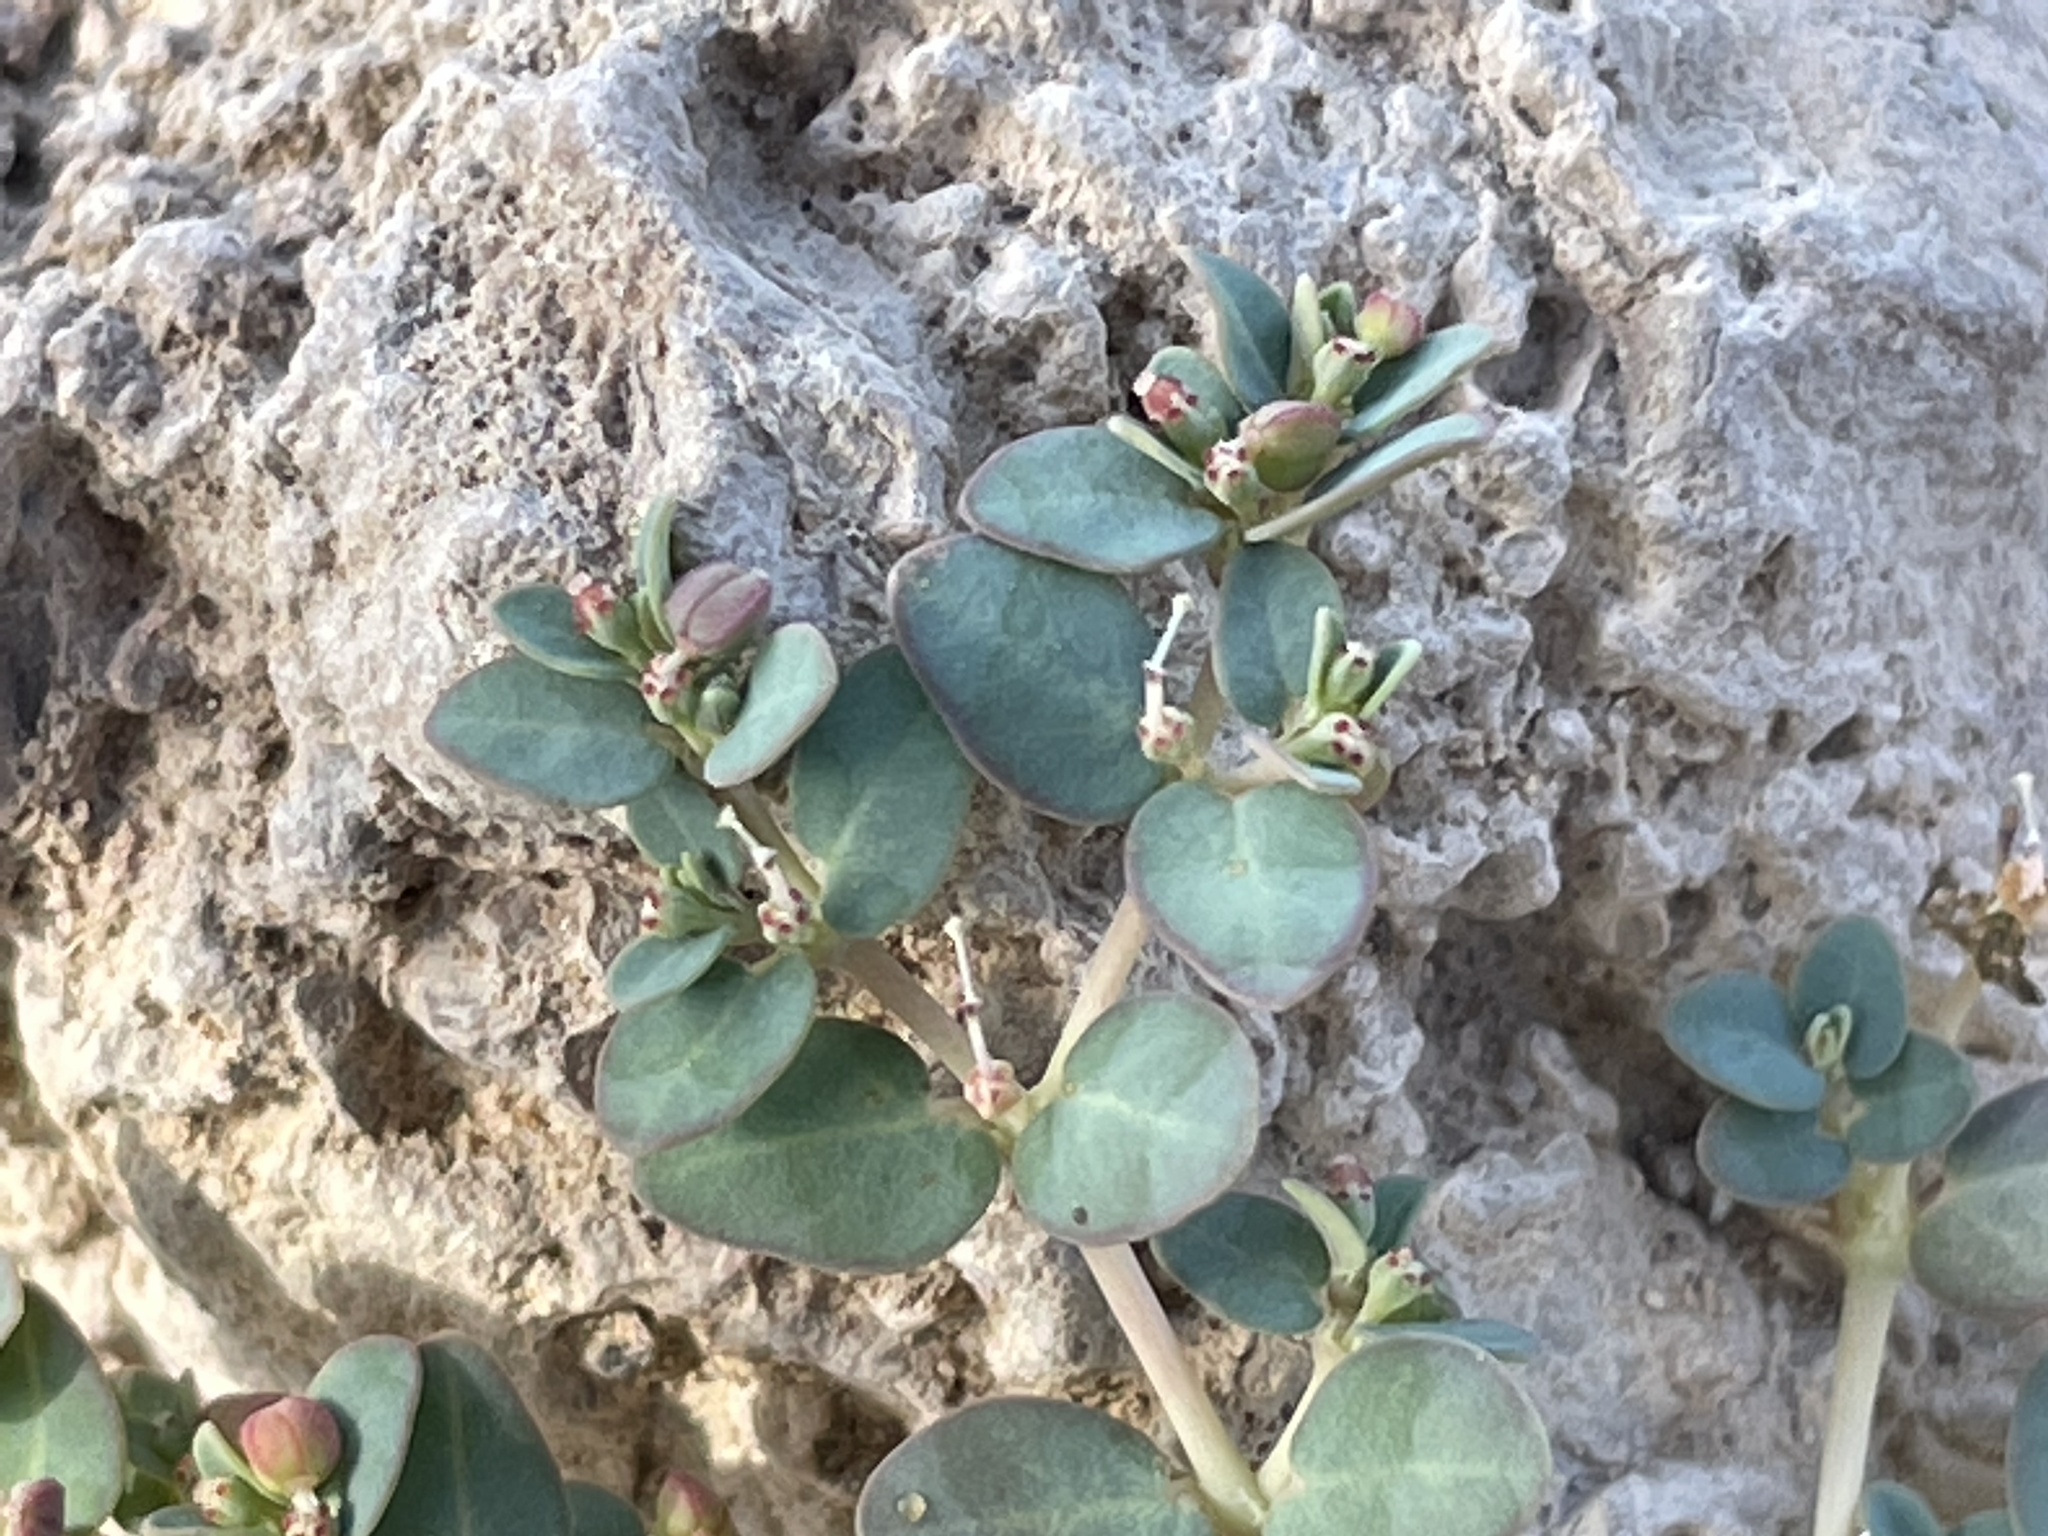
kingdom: Plantae
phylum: Tracheophyta
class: Magnoliopsida
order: Malpighiales
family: Euphorbiaceae
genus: Euphorbia
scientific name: Euphorbia micromera
